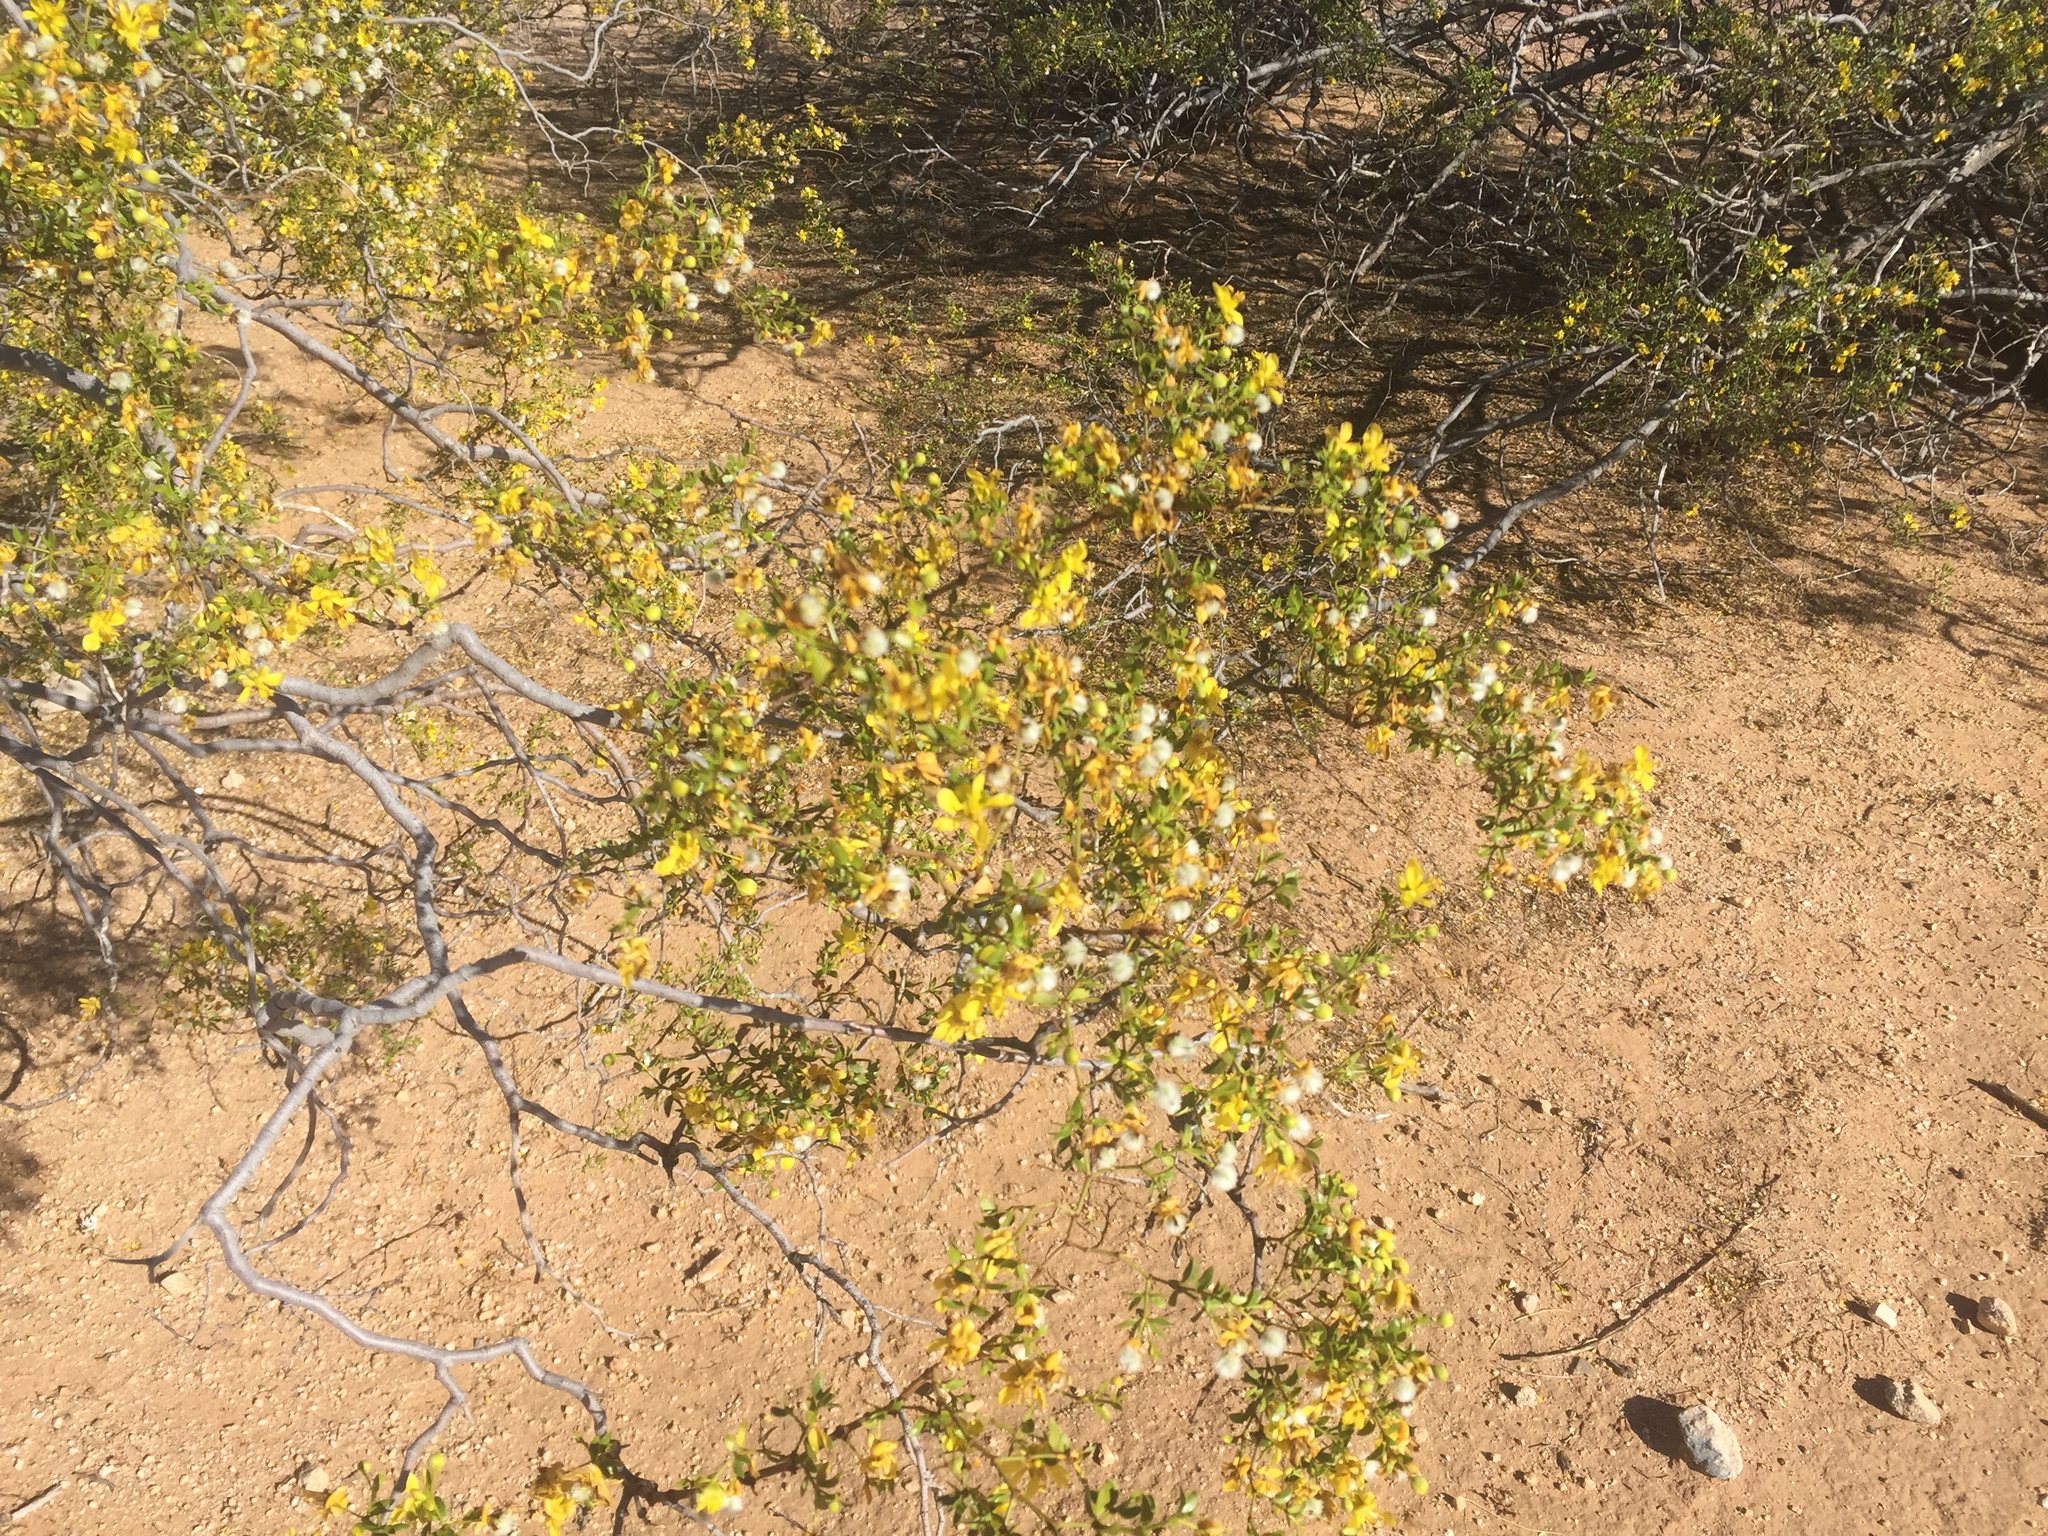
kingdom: Plantae
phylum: Tracheophyta
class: Magnoliopsida
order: Zygophyllales
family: Zygophyllaceae
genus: Larrea
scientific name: Larrea tridentata
